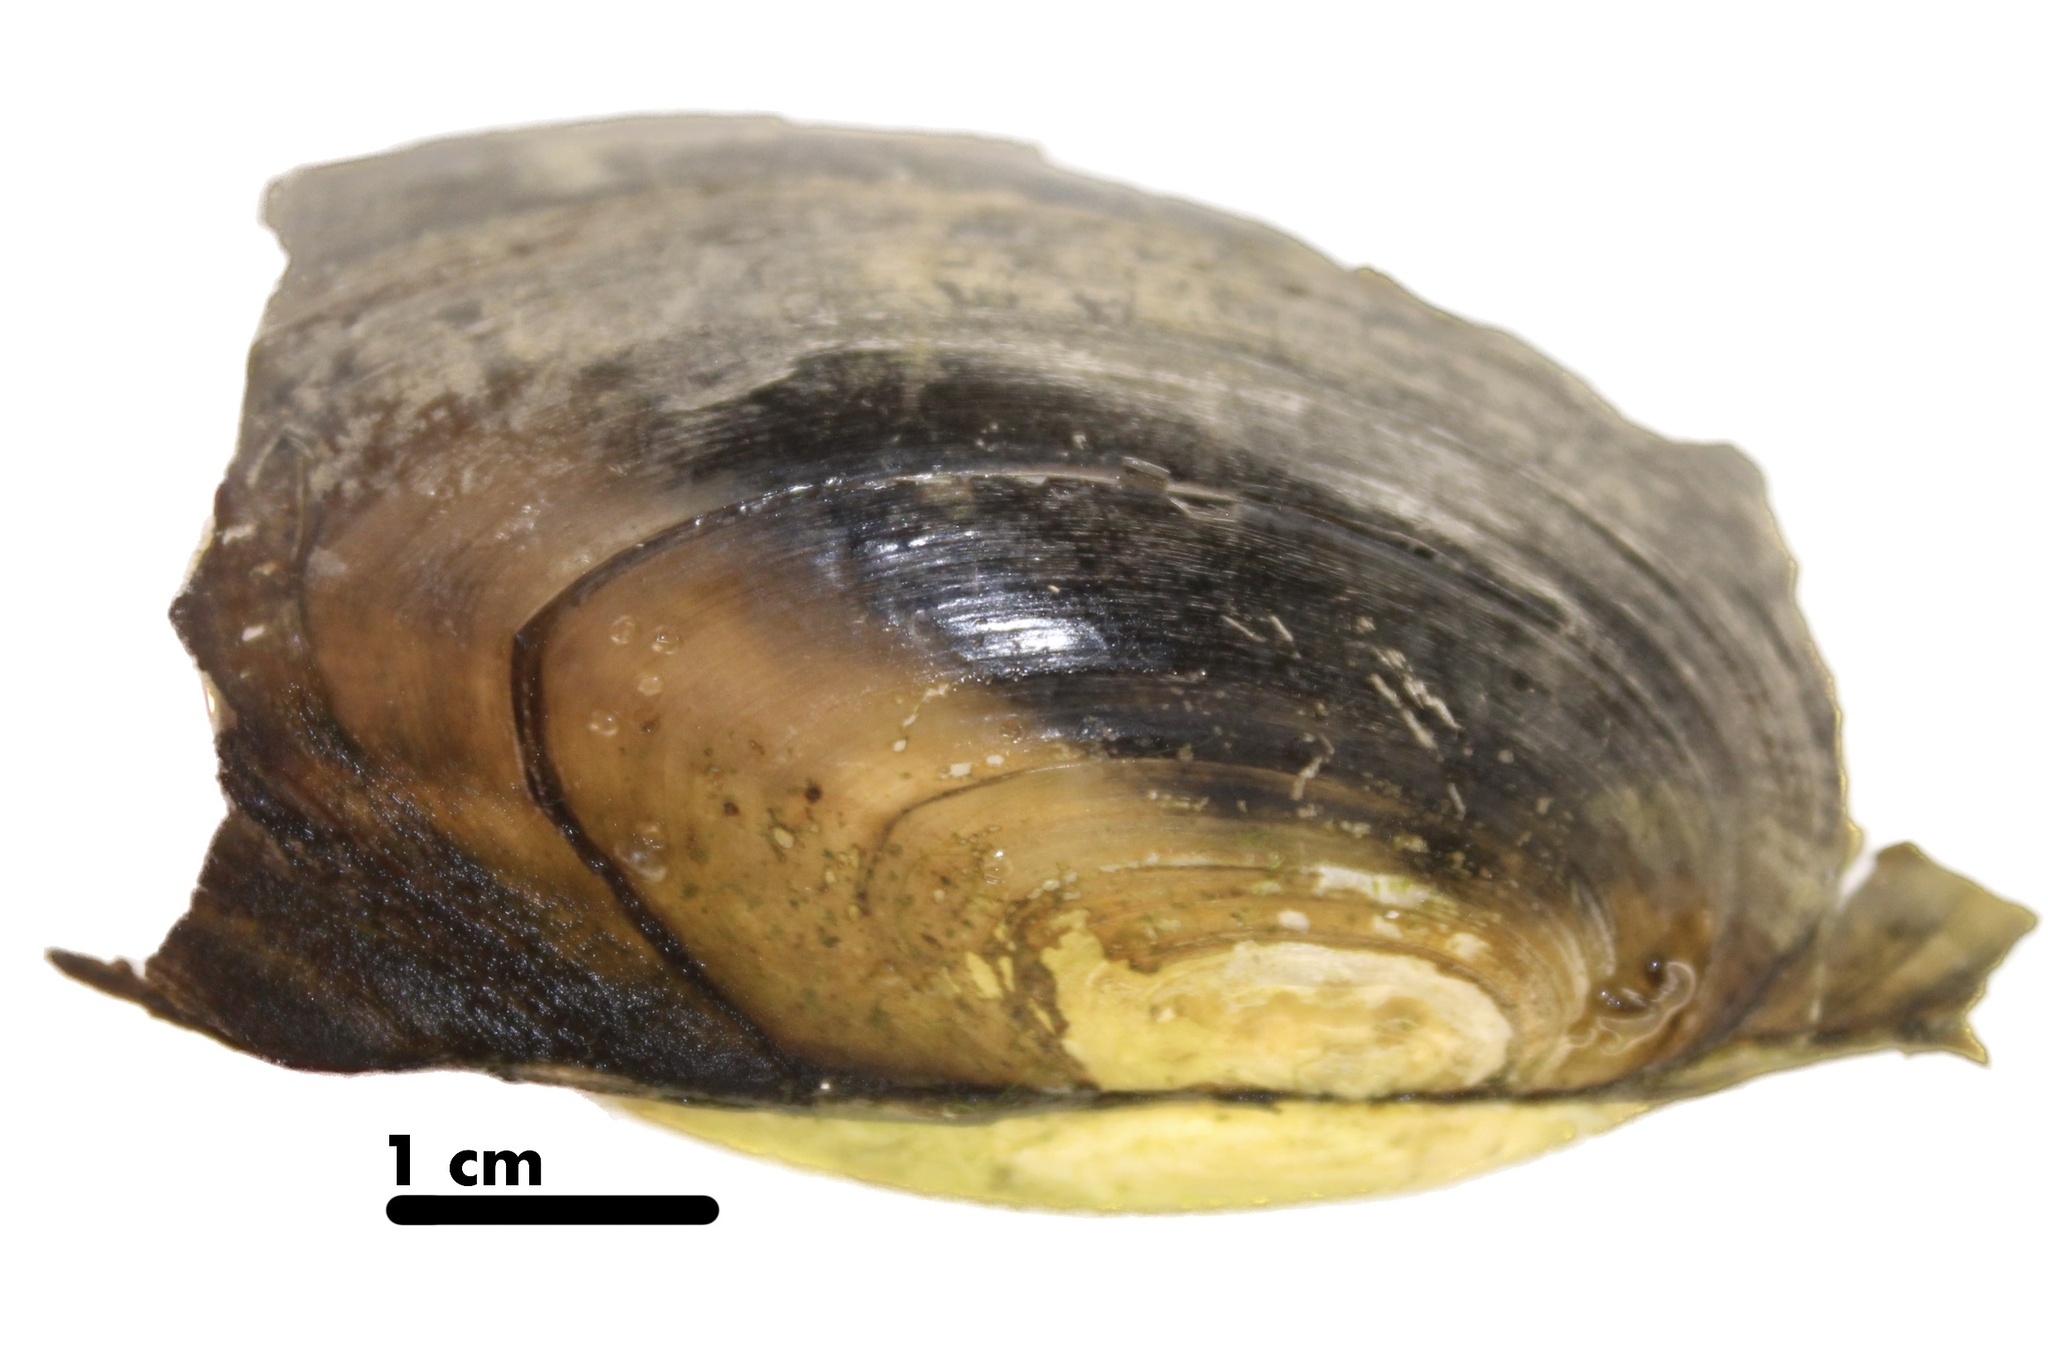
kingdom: Animalia
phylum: Mollusca
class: Bivalvia
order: Unionida
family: Unionidae
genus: Utterbackia
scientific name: Utterbackia imbecillis
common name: Paper pondshell
